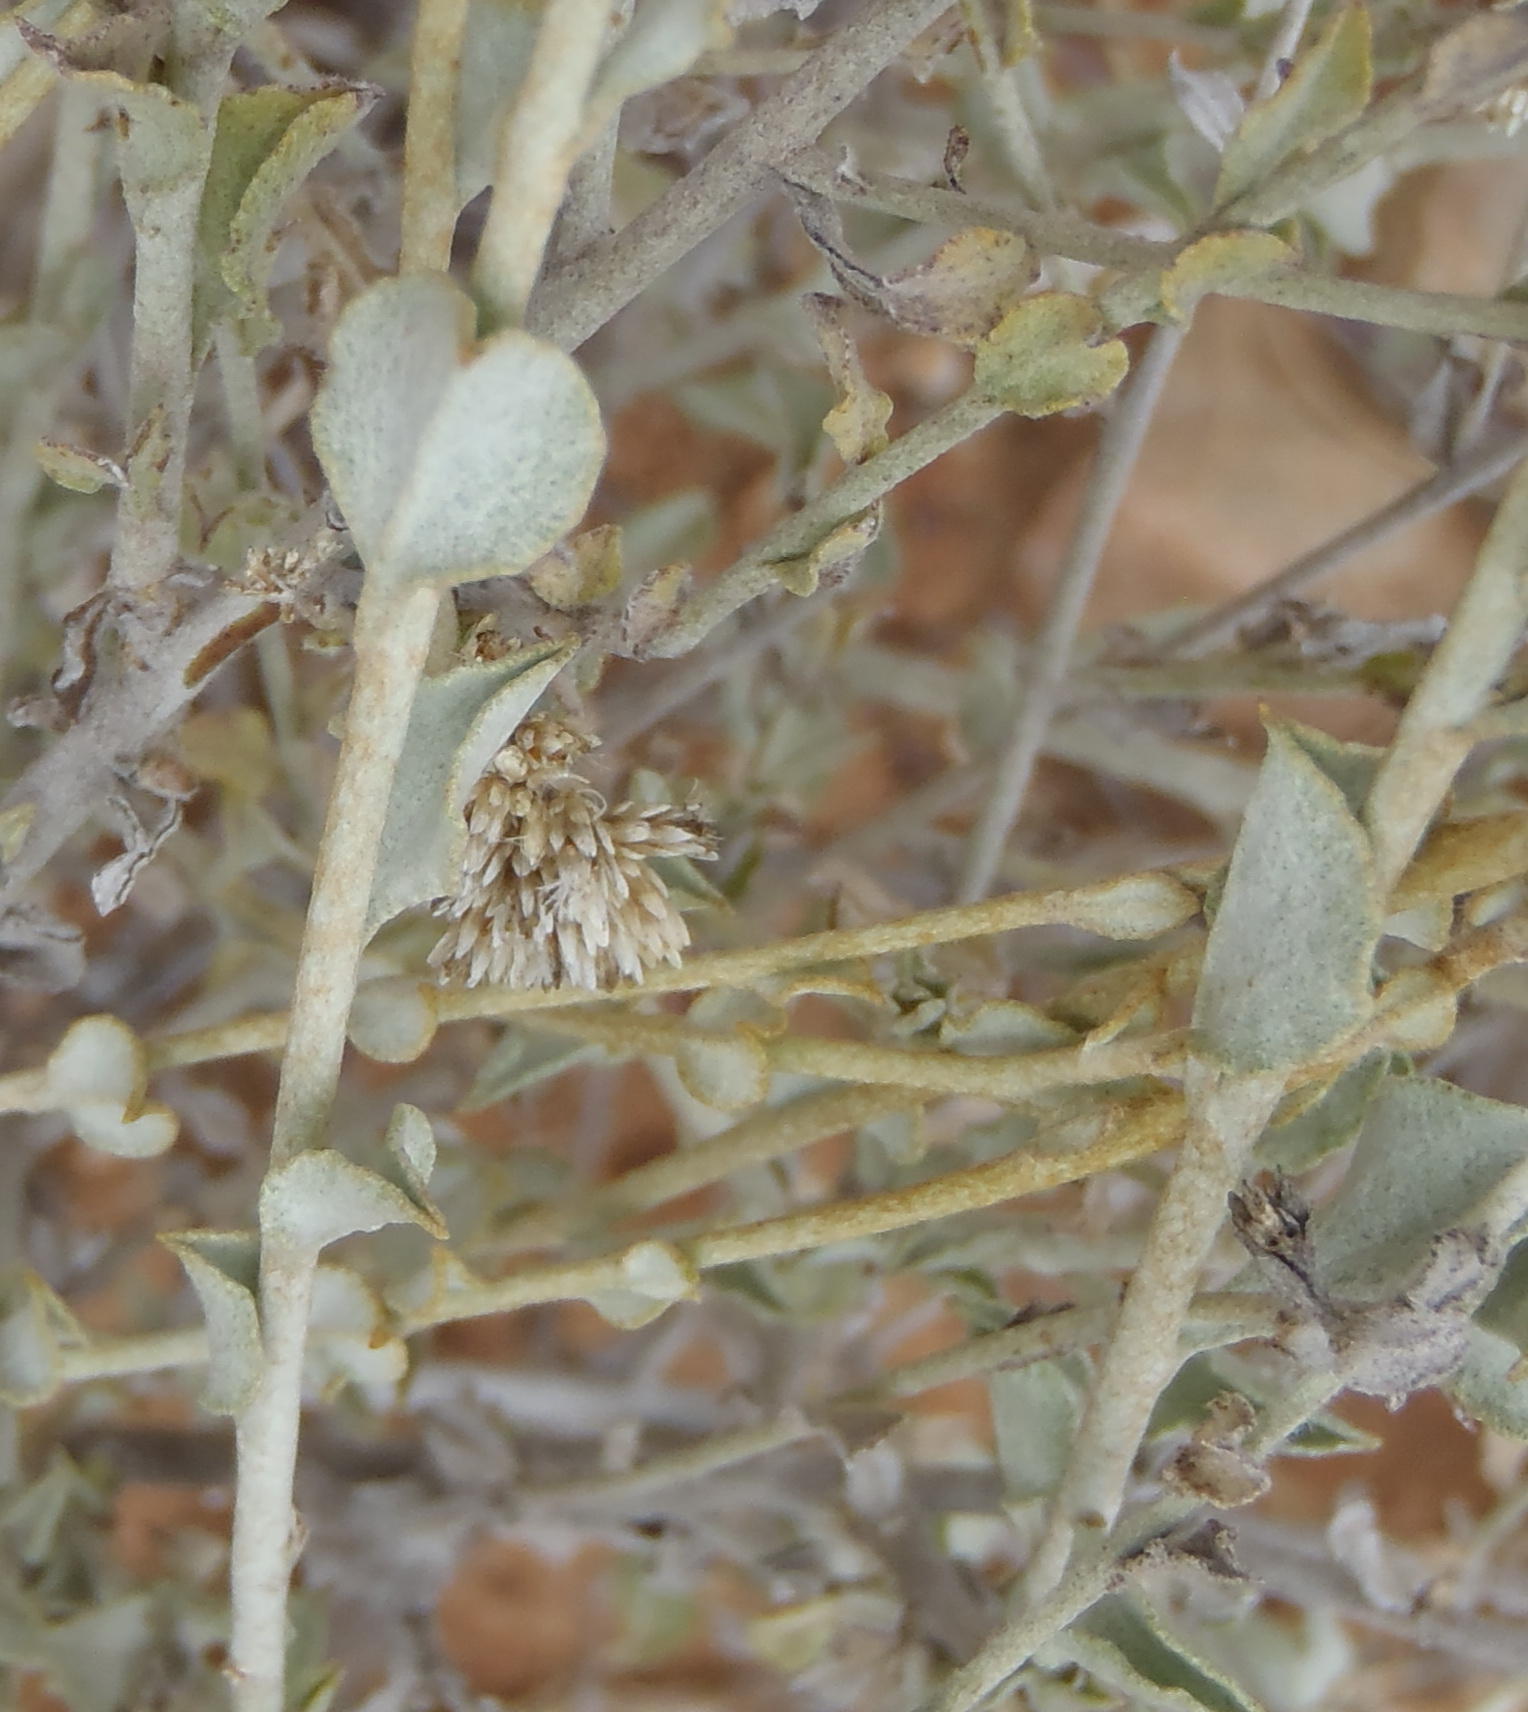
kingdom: Plantae
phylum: Tracheophyta
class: Magnoliopsida
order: Asterales
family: Asteraceae
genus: Helichrysum
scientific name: Helichrysum zeyheri
